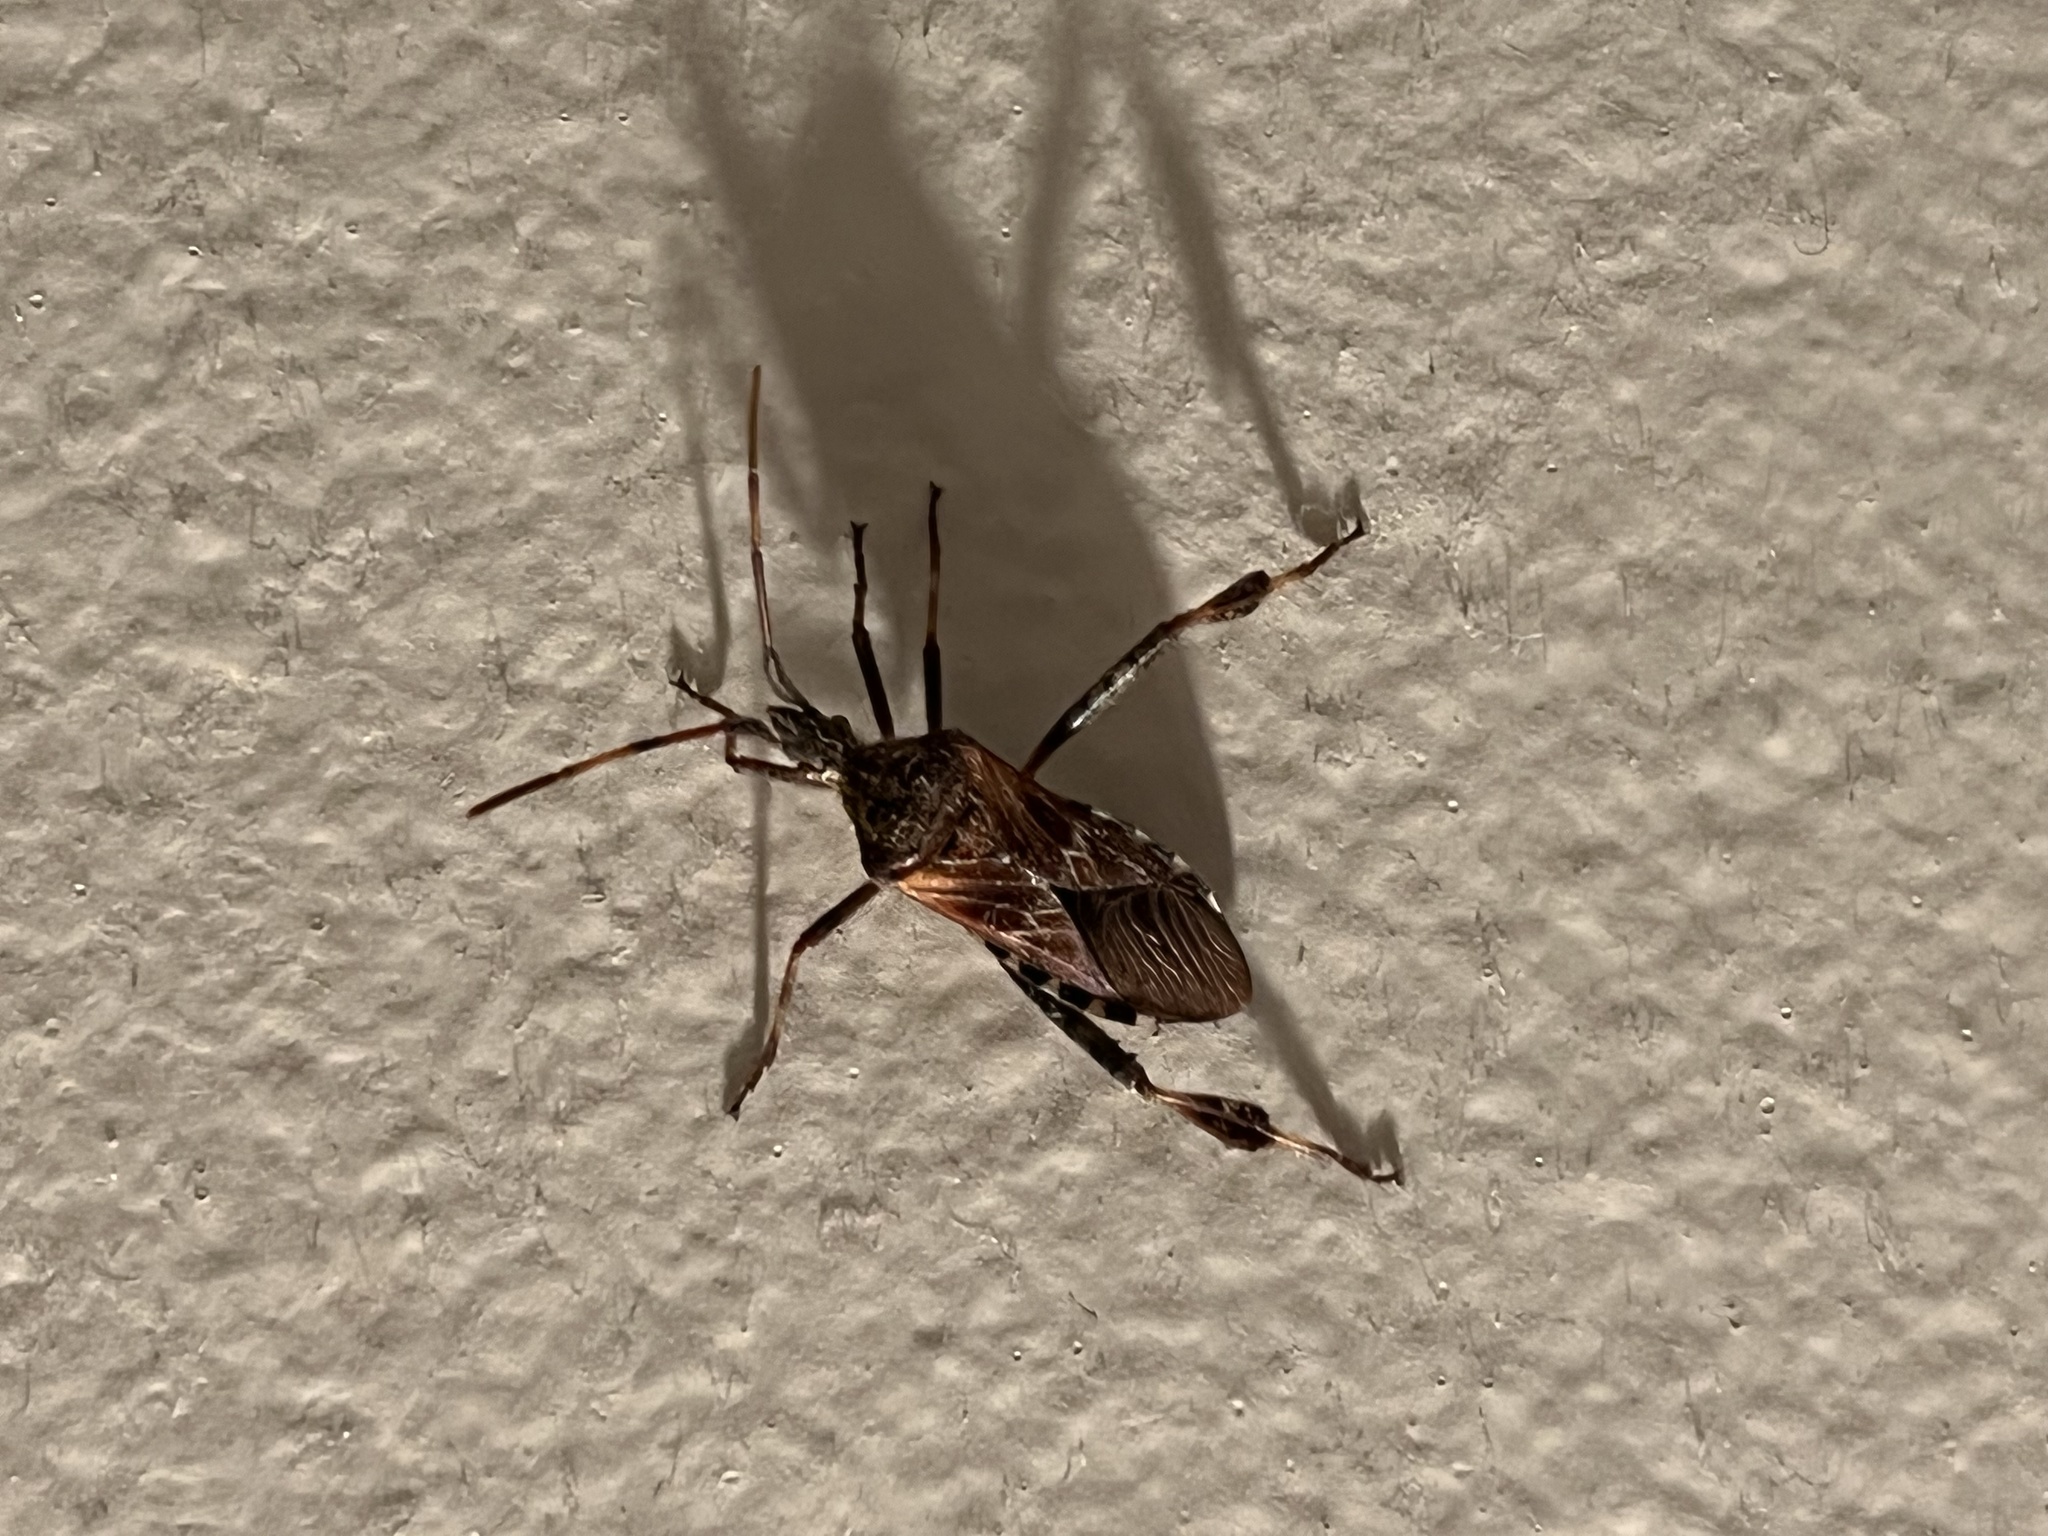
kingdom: Animalia
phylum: Arthropoda
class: Insecta
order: Hemiptera
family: Coreidae
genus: Leptoglossus
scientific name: Leptoglossus occidentalis
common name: Western conifer-seed bug
